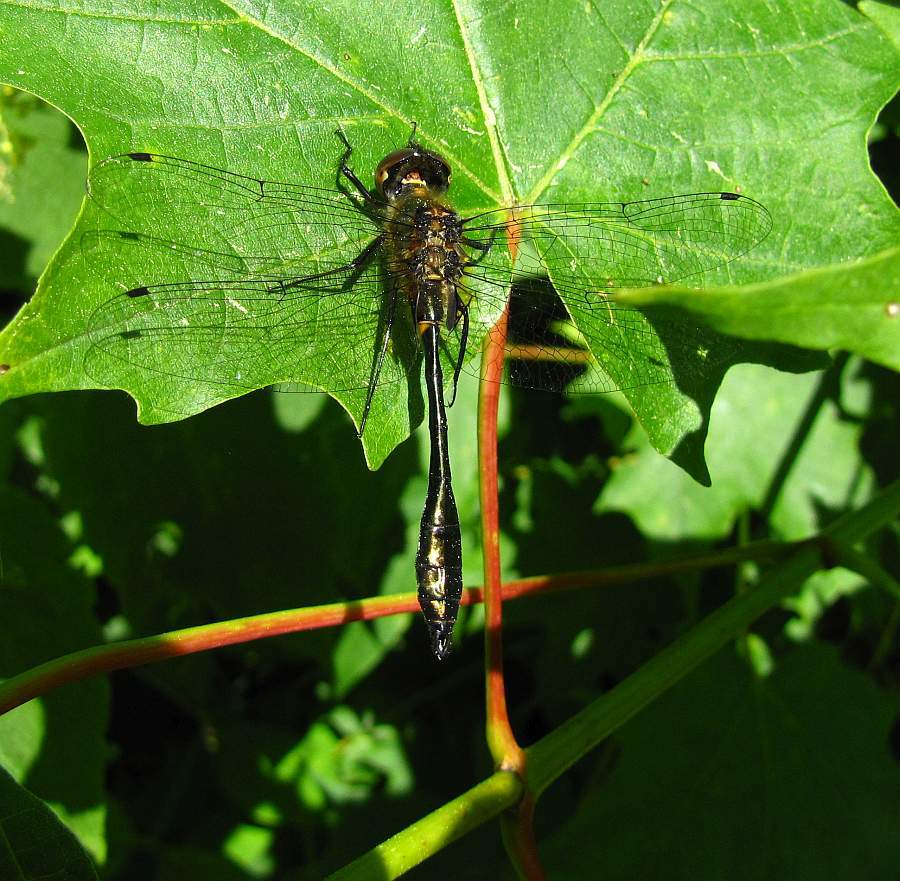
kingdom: Animalia
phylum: Arthropoda
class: Insecta
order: Odonata
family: Corduliidae
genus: Dorocordulia
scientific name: Dorocordulia libera
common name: Racket-tailed emerald
